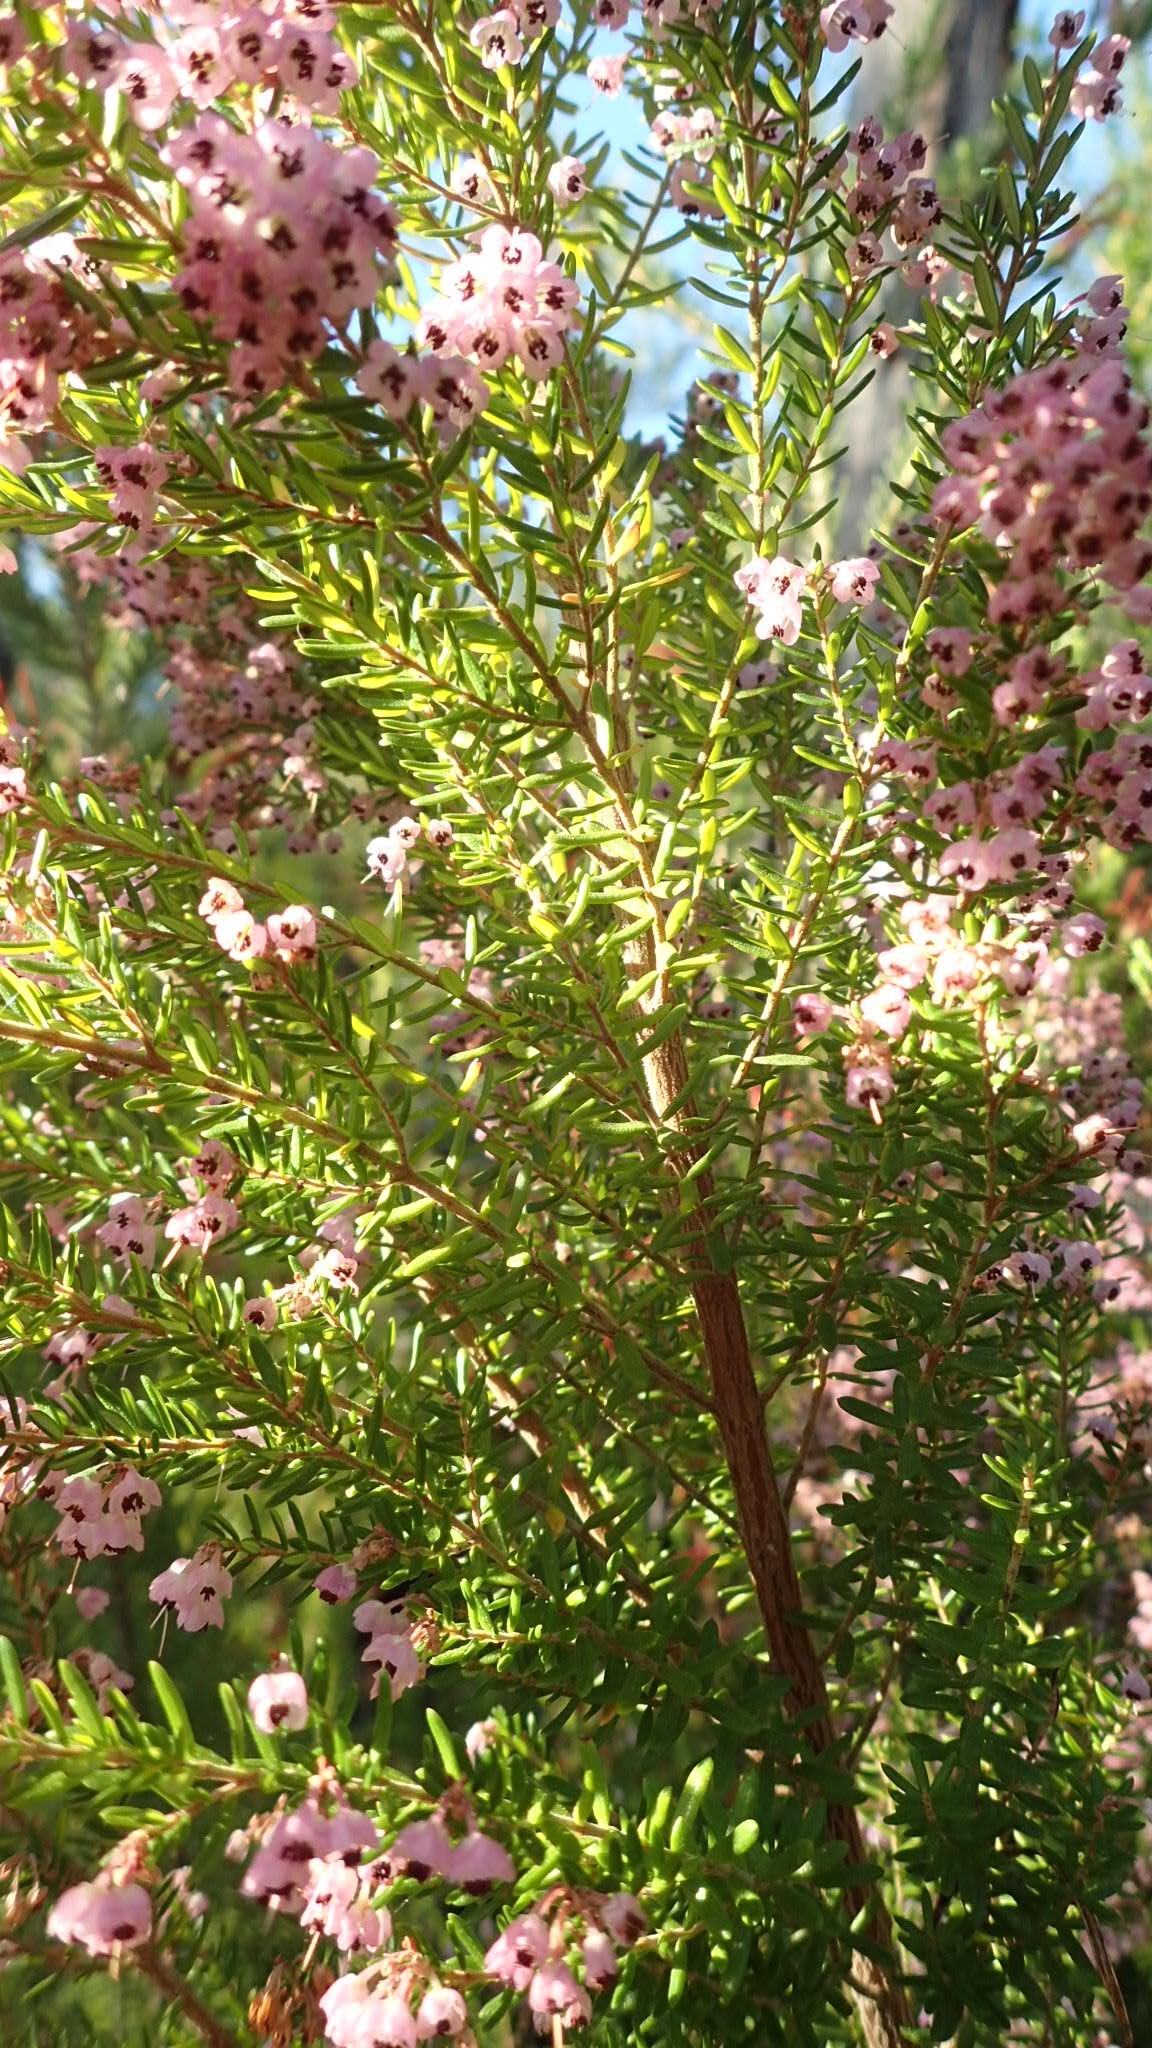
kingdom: Plantae
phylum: Tracheophyta
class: Magnoliopsida
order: Ericales
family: Ericaceae
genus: Erica
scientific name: Erica canaliculata
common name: Hairy grey heather
